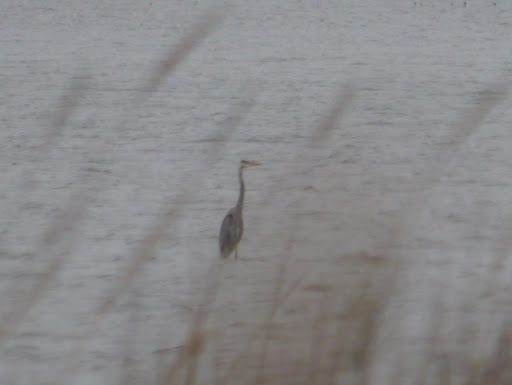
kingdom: Animalia
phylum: Chordata
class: Aves
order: Pelecaniformes
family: Ardeidae
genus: Ardea
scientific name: Ardea herodias
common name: Great blue heron
